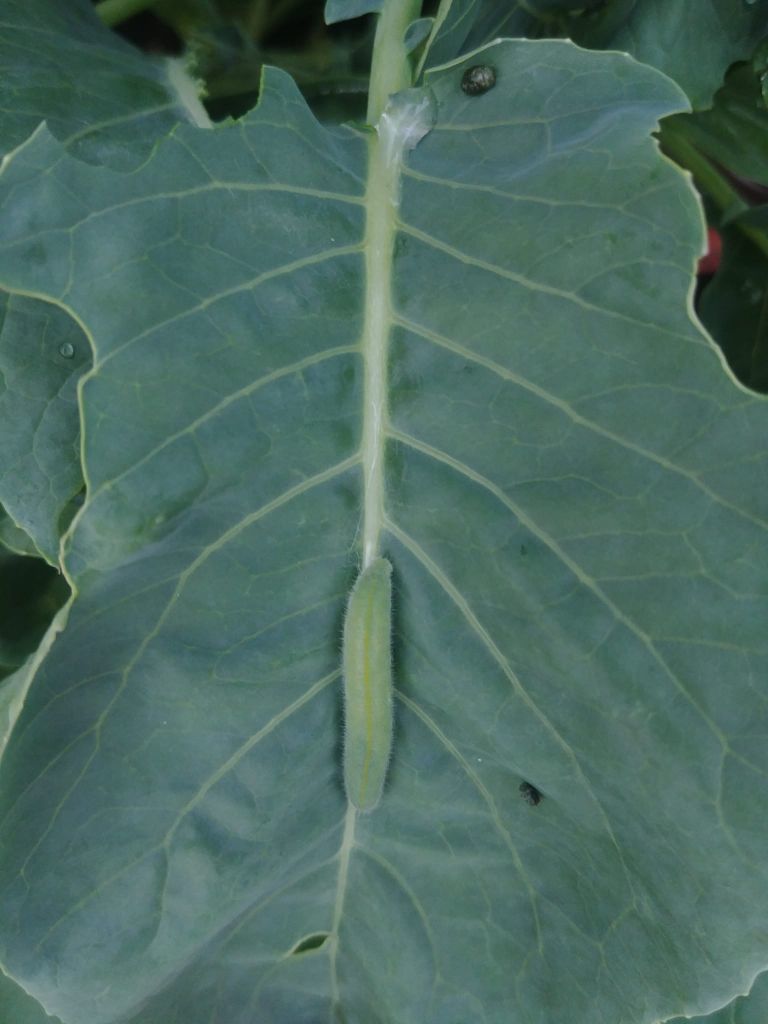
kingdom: Animalia
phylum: Arthropoda
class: Insecta
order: Lepidoptera
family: Pieridae
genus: Pieris
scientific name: Pieris rapae
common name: Small white
